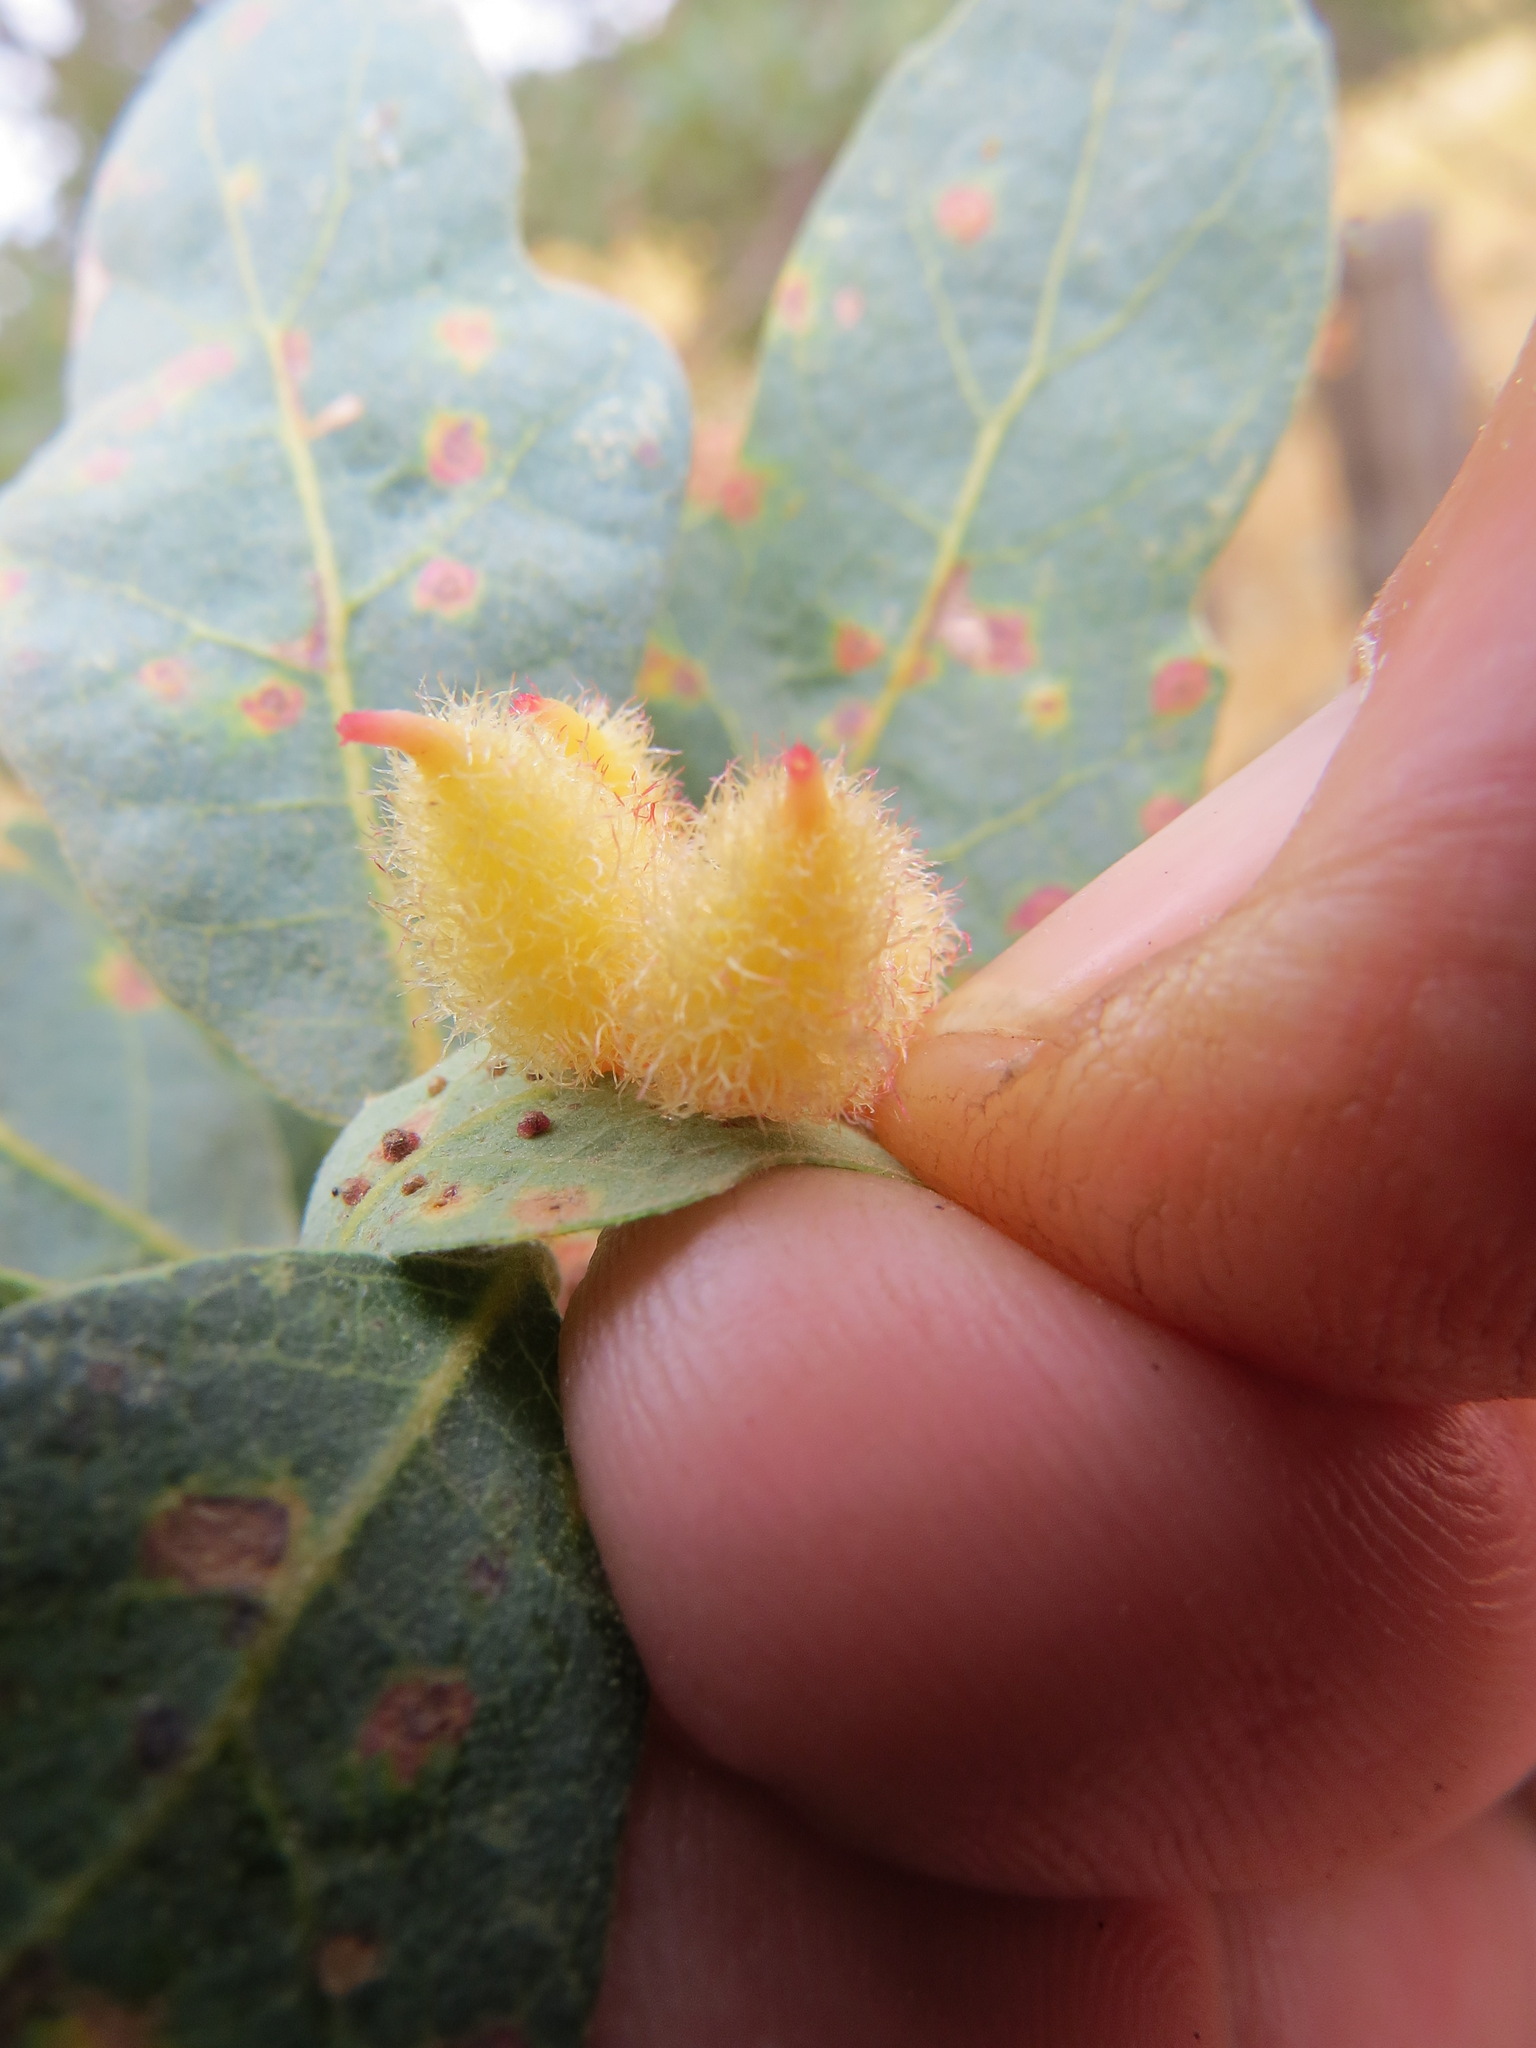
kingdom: Animalia
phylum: Arthropoda
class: Insecta
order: Hymenoptera
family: Cynipidae
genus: Andricus
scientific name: Andricus
